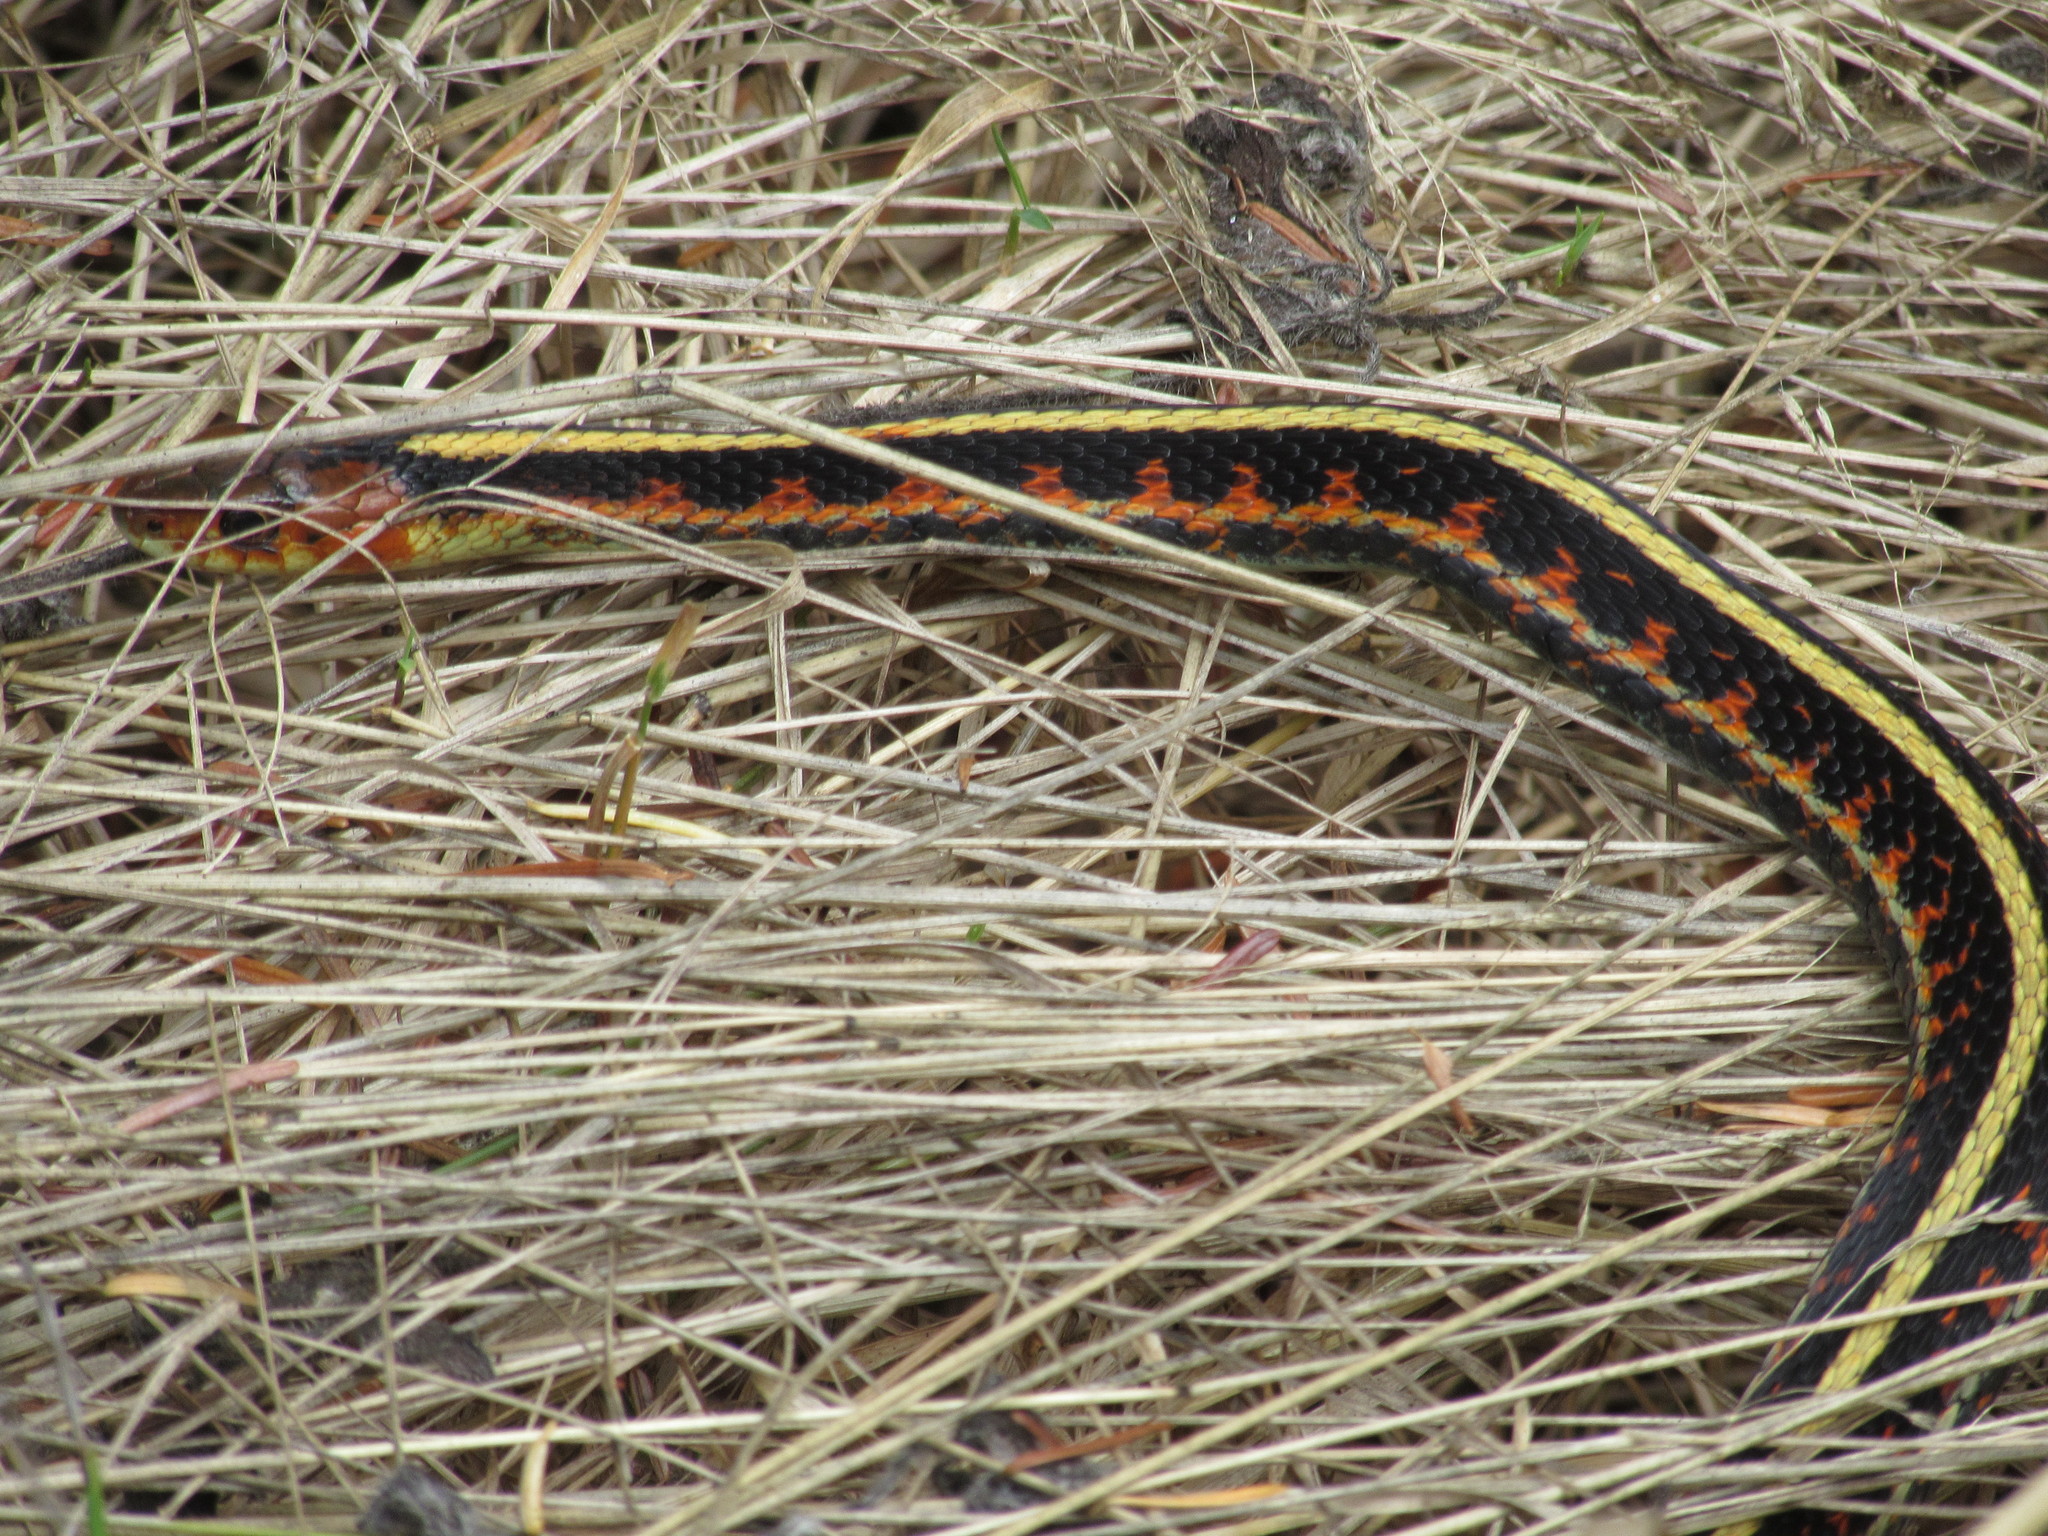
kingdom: Animalia
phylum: Chordata
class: Squamata
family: Colubridae
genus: Thamnophis
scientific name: Thamnophis sirtalis
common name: Common garter snake
